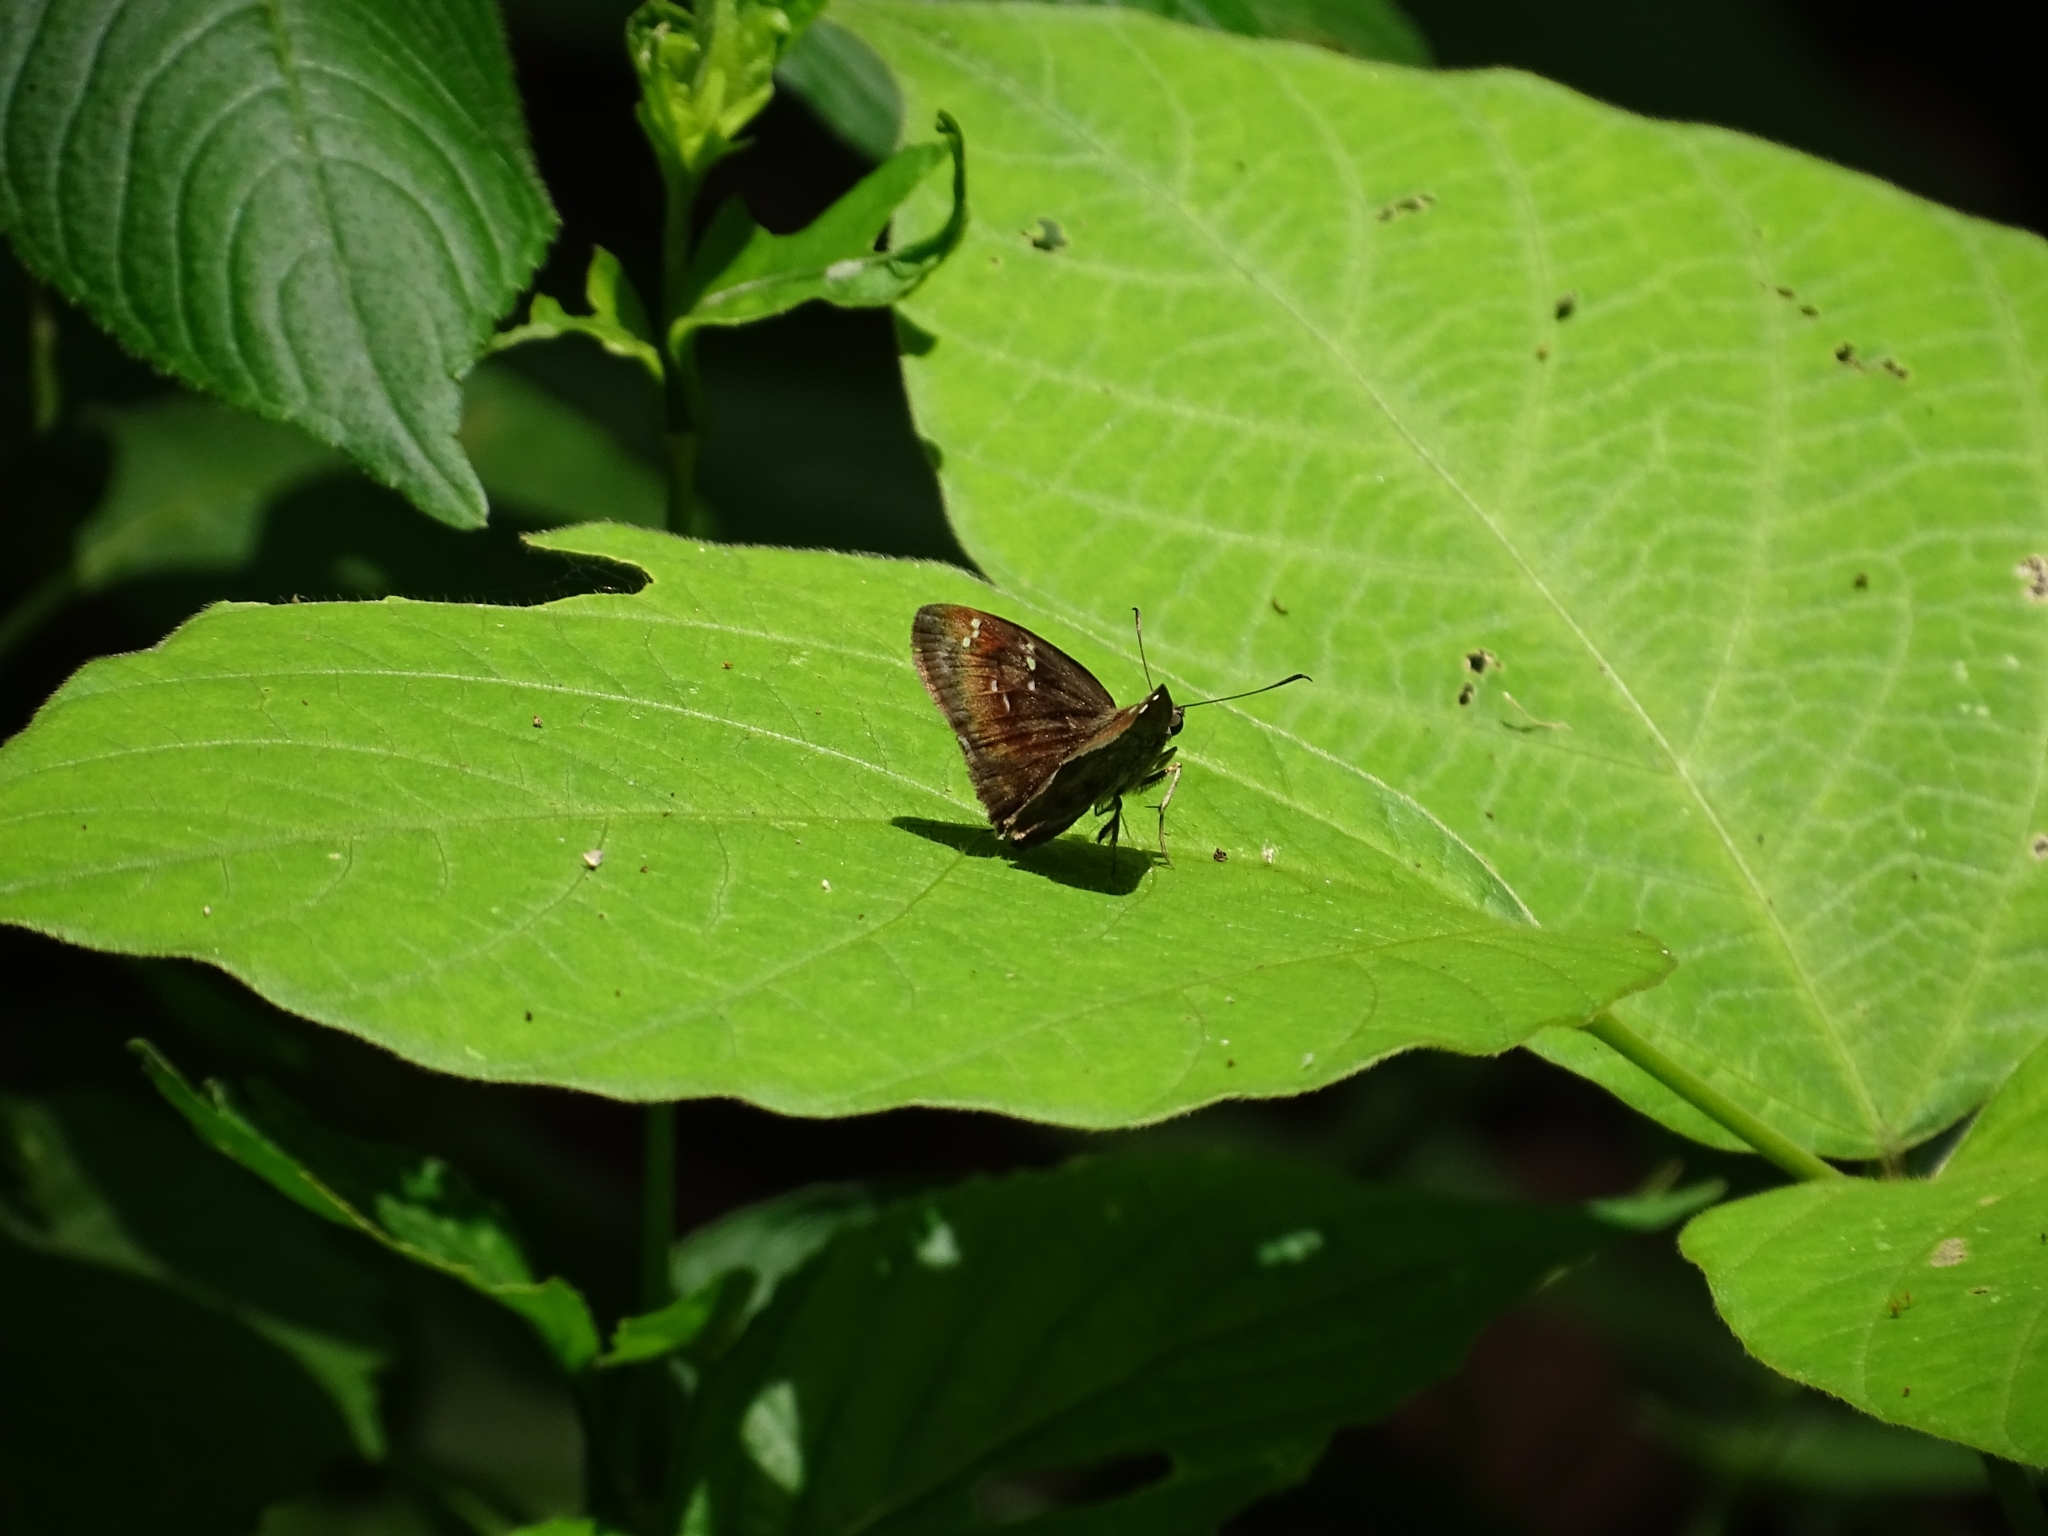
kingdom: Animalia
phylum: Arthropoda
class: Insecta
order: Lepidoptera
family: Hesperiidae
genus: Sarangesa
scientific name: Sarangesa dasahara
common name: Common small flat
